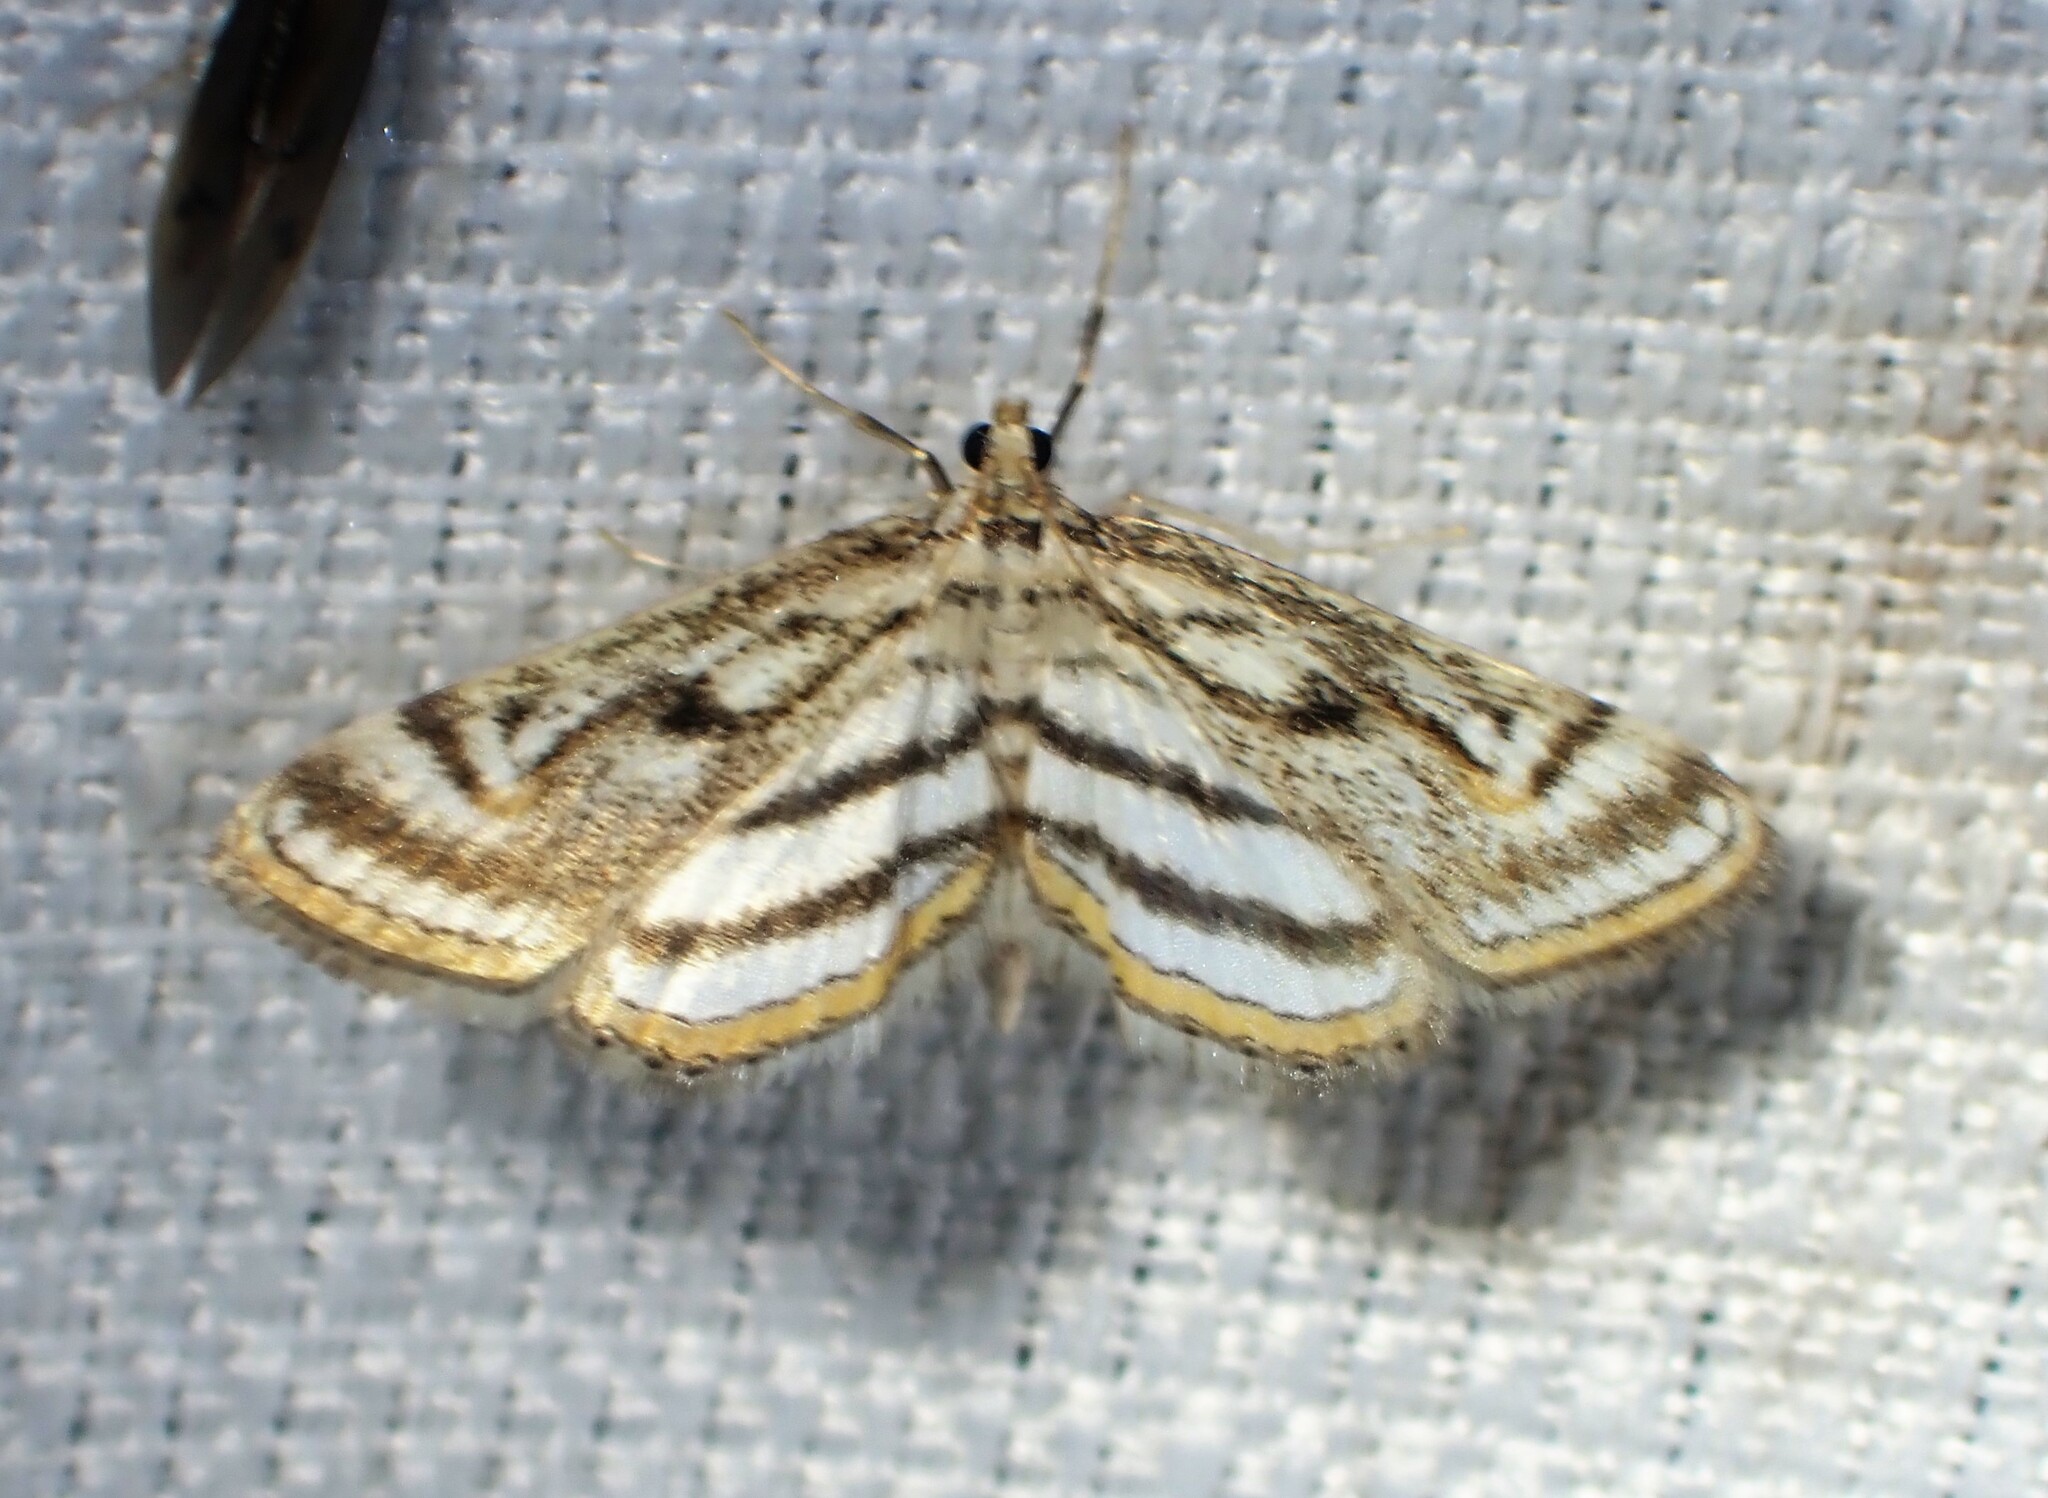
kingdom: Animalia
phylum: Arthropoda
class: Insecta
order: Lepidoptera
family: Crambidae
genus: Parapoynx
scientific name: Parapoynx badiusalis
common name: Chestnut-marked pondweed moth
